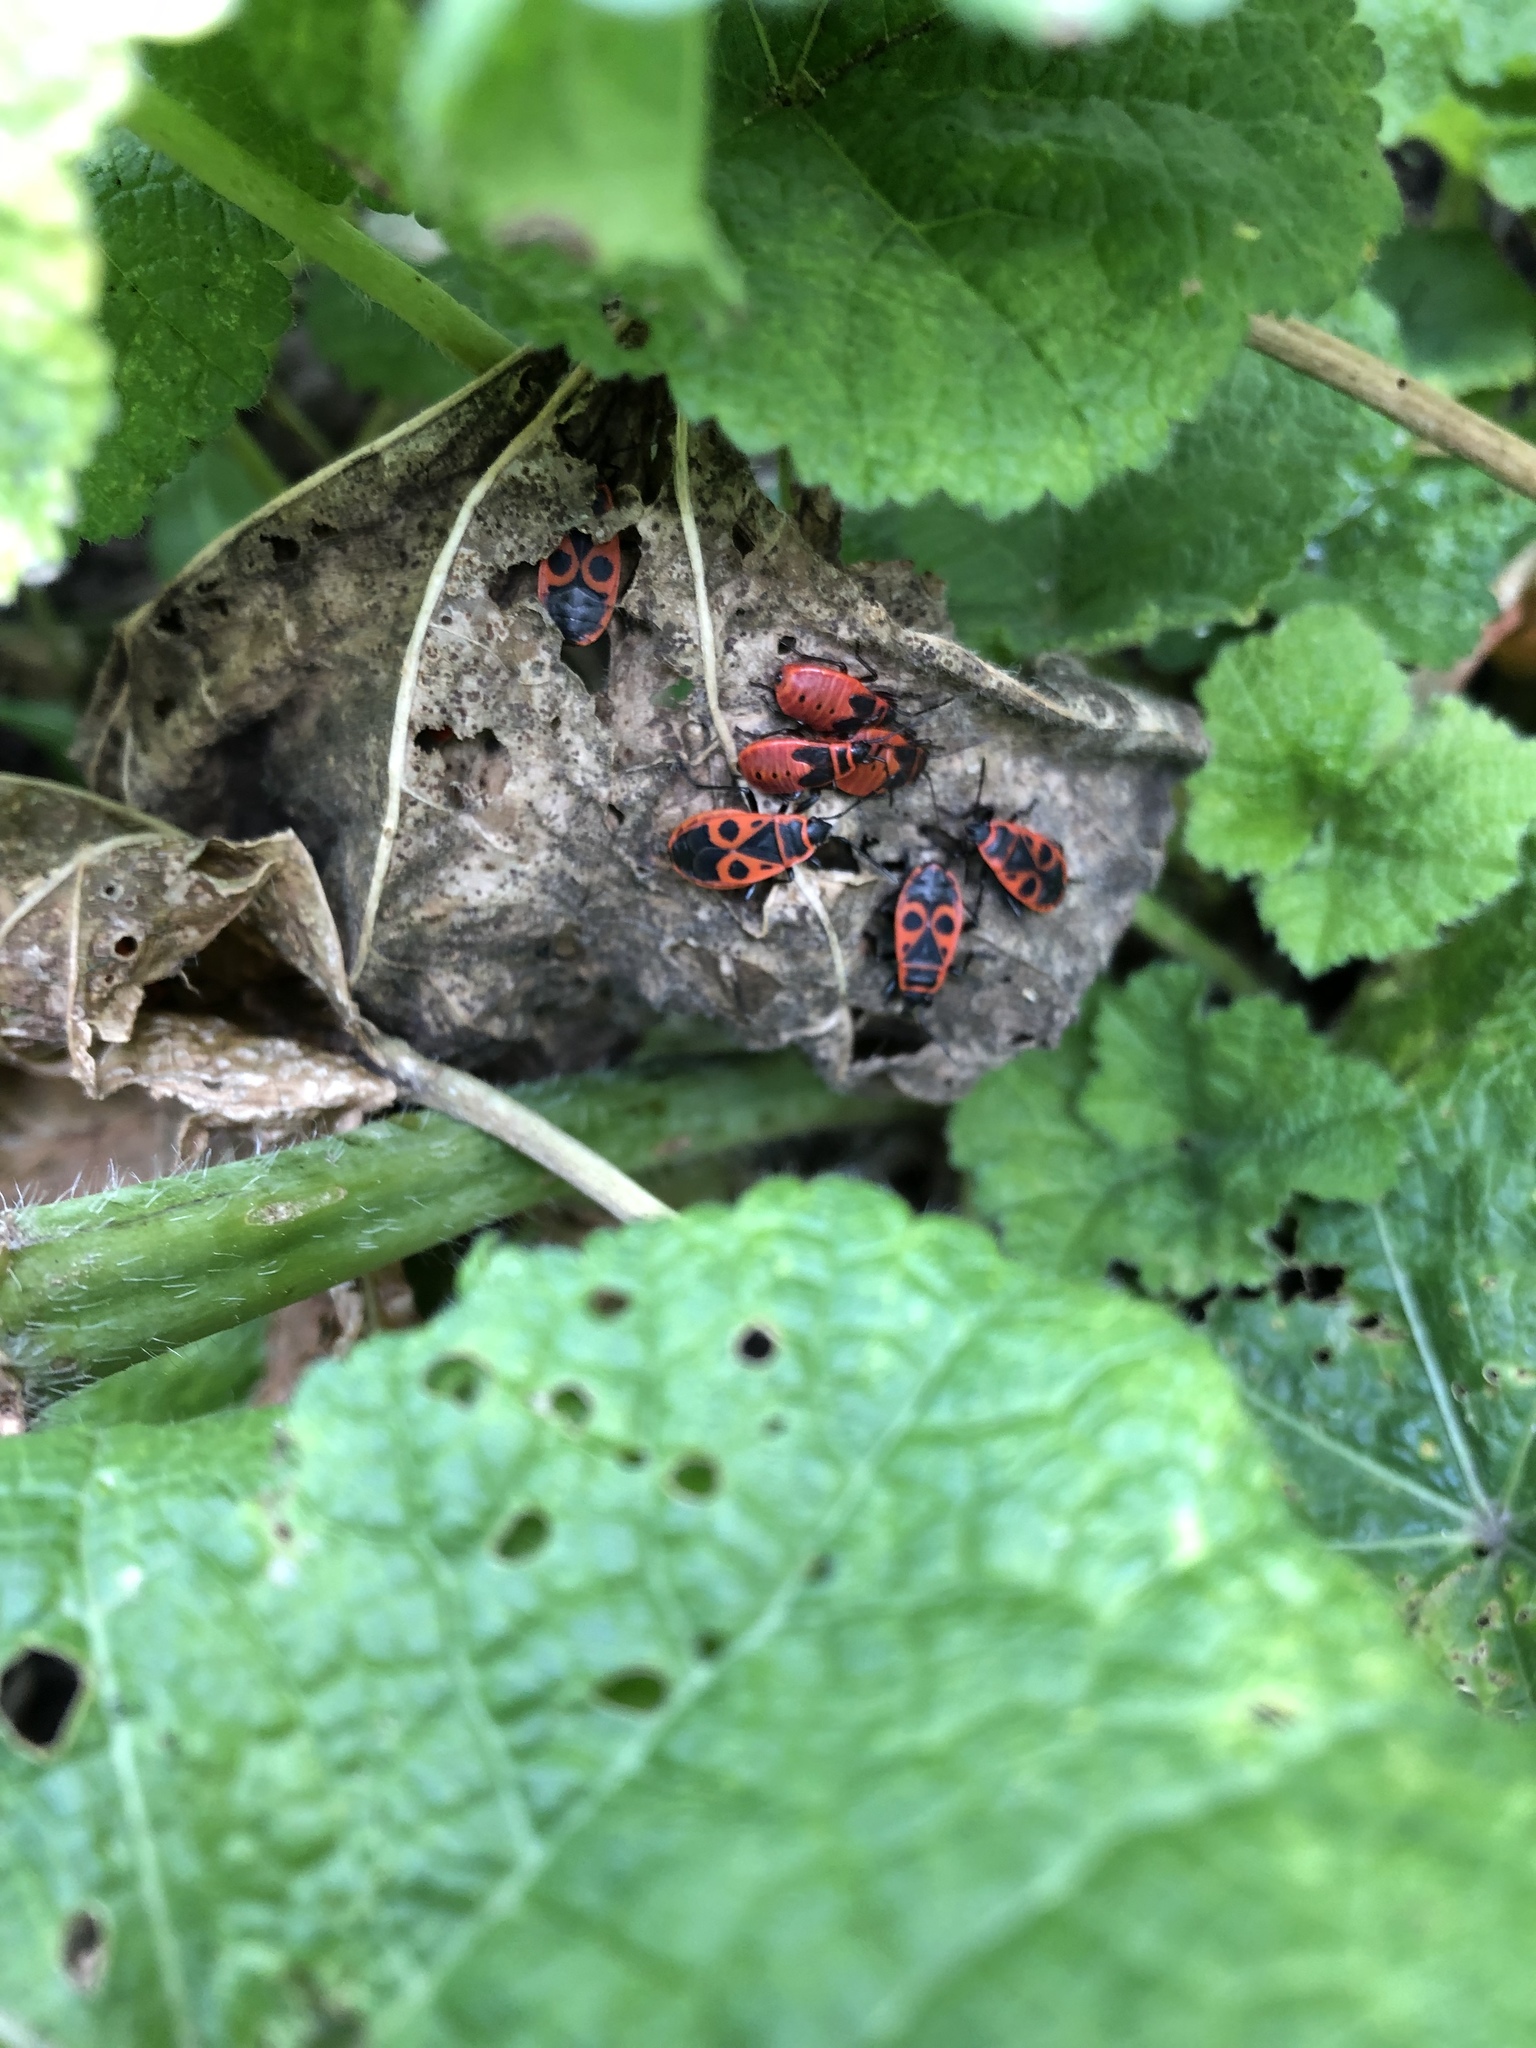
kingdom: Animalia
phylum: Arthropoda
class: Insecta
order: Hemiptera
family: Pyrrhocoridae
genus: Pyrrhocoris
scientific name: Pyrrhocoris apterus
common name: Firebug
